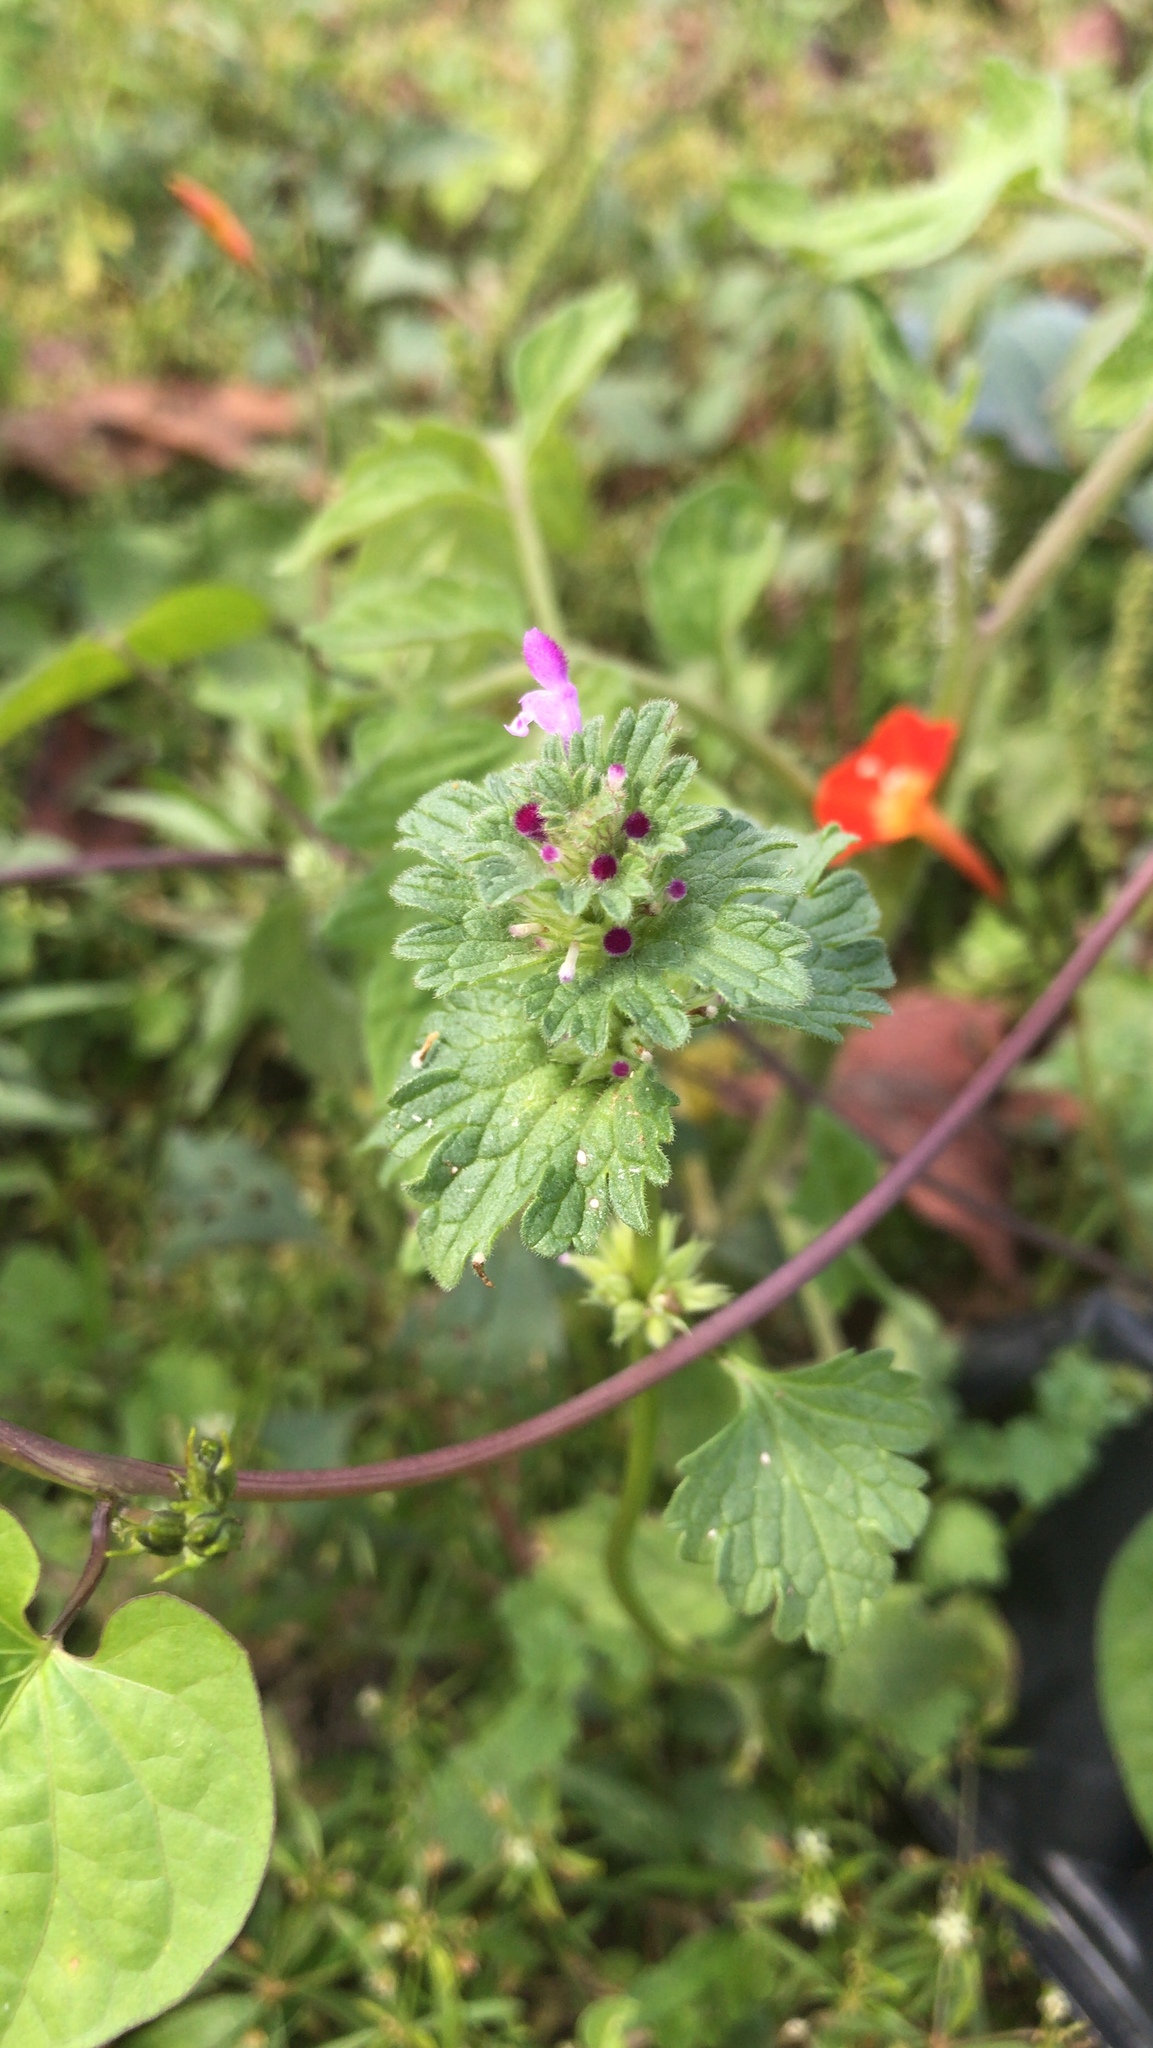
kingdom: Plantae
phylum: Tracheophyta
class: Magnoliopsida
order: Lamiales
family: Lamiaceae
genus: Lamium
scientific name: Lamium amplexicaule
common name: Henbit dead-nettle
